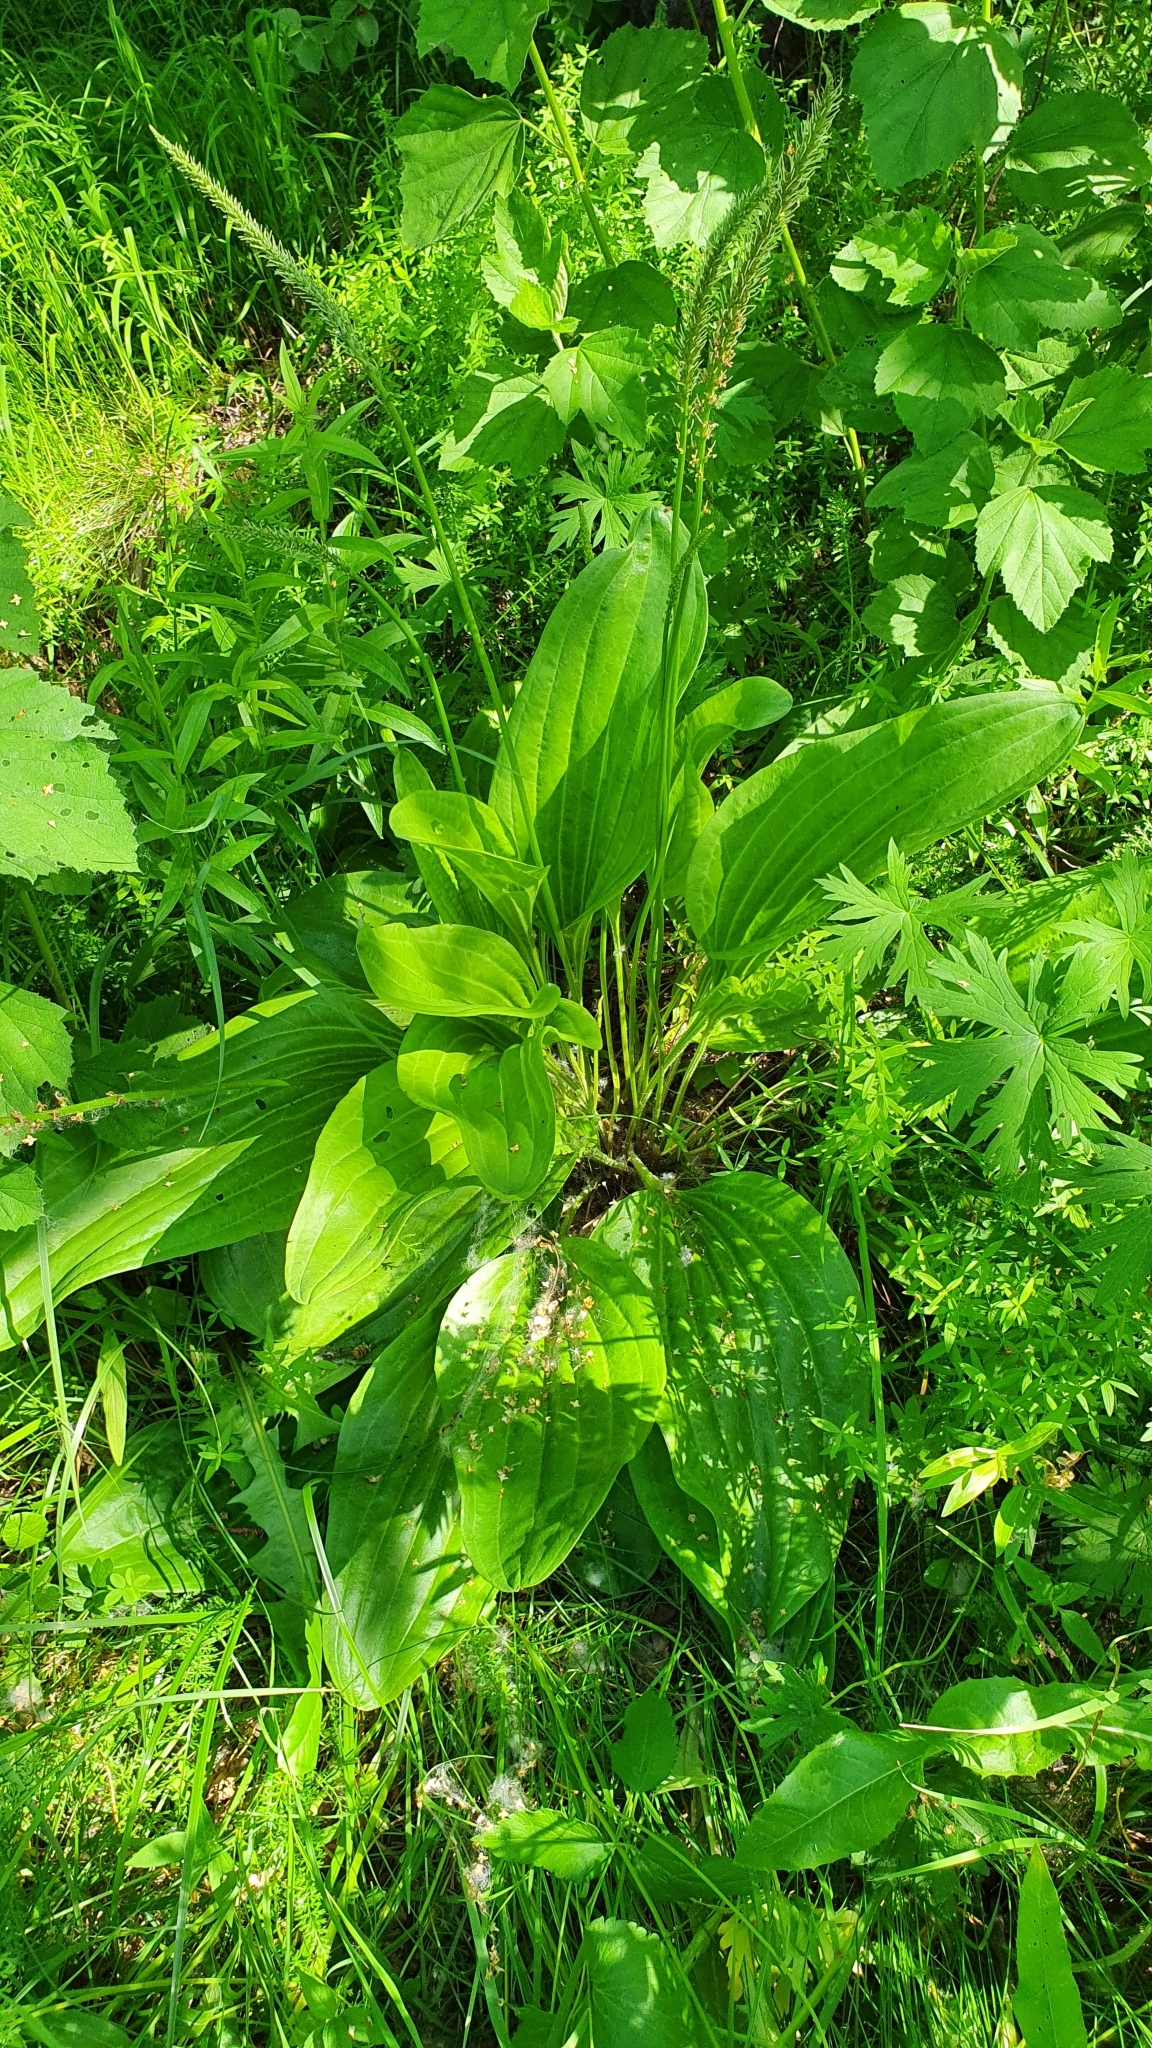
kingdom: Plantae
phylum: Tracheophyta
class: Magnoliopsida
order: Lamiales
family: Plantaginaceae
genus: Plantago
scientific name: Plantago cornuti
